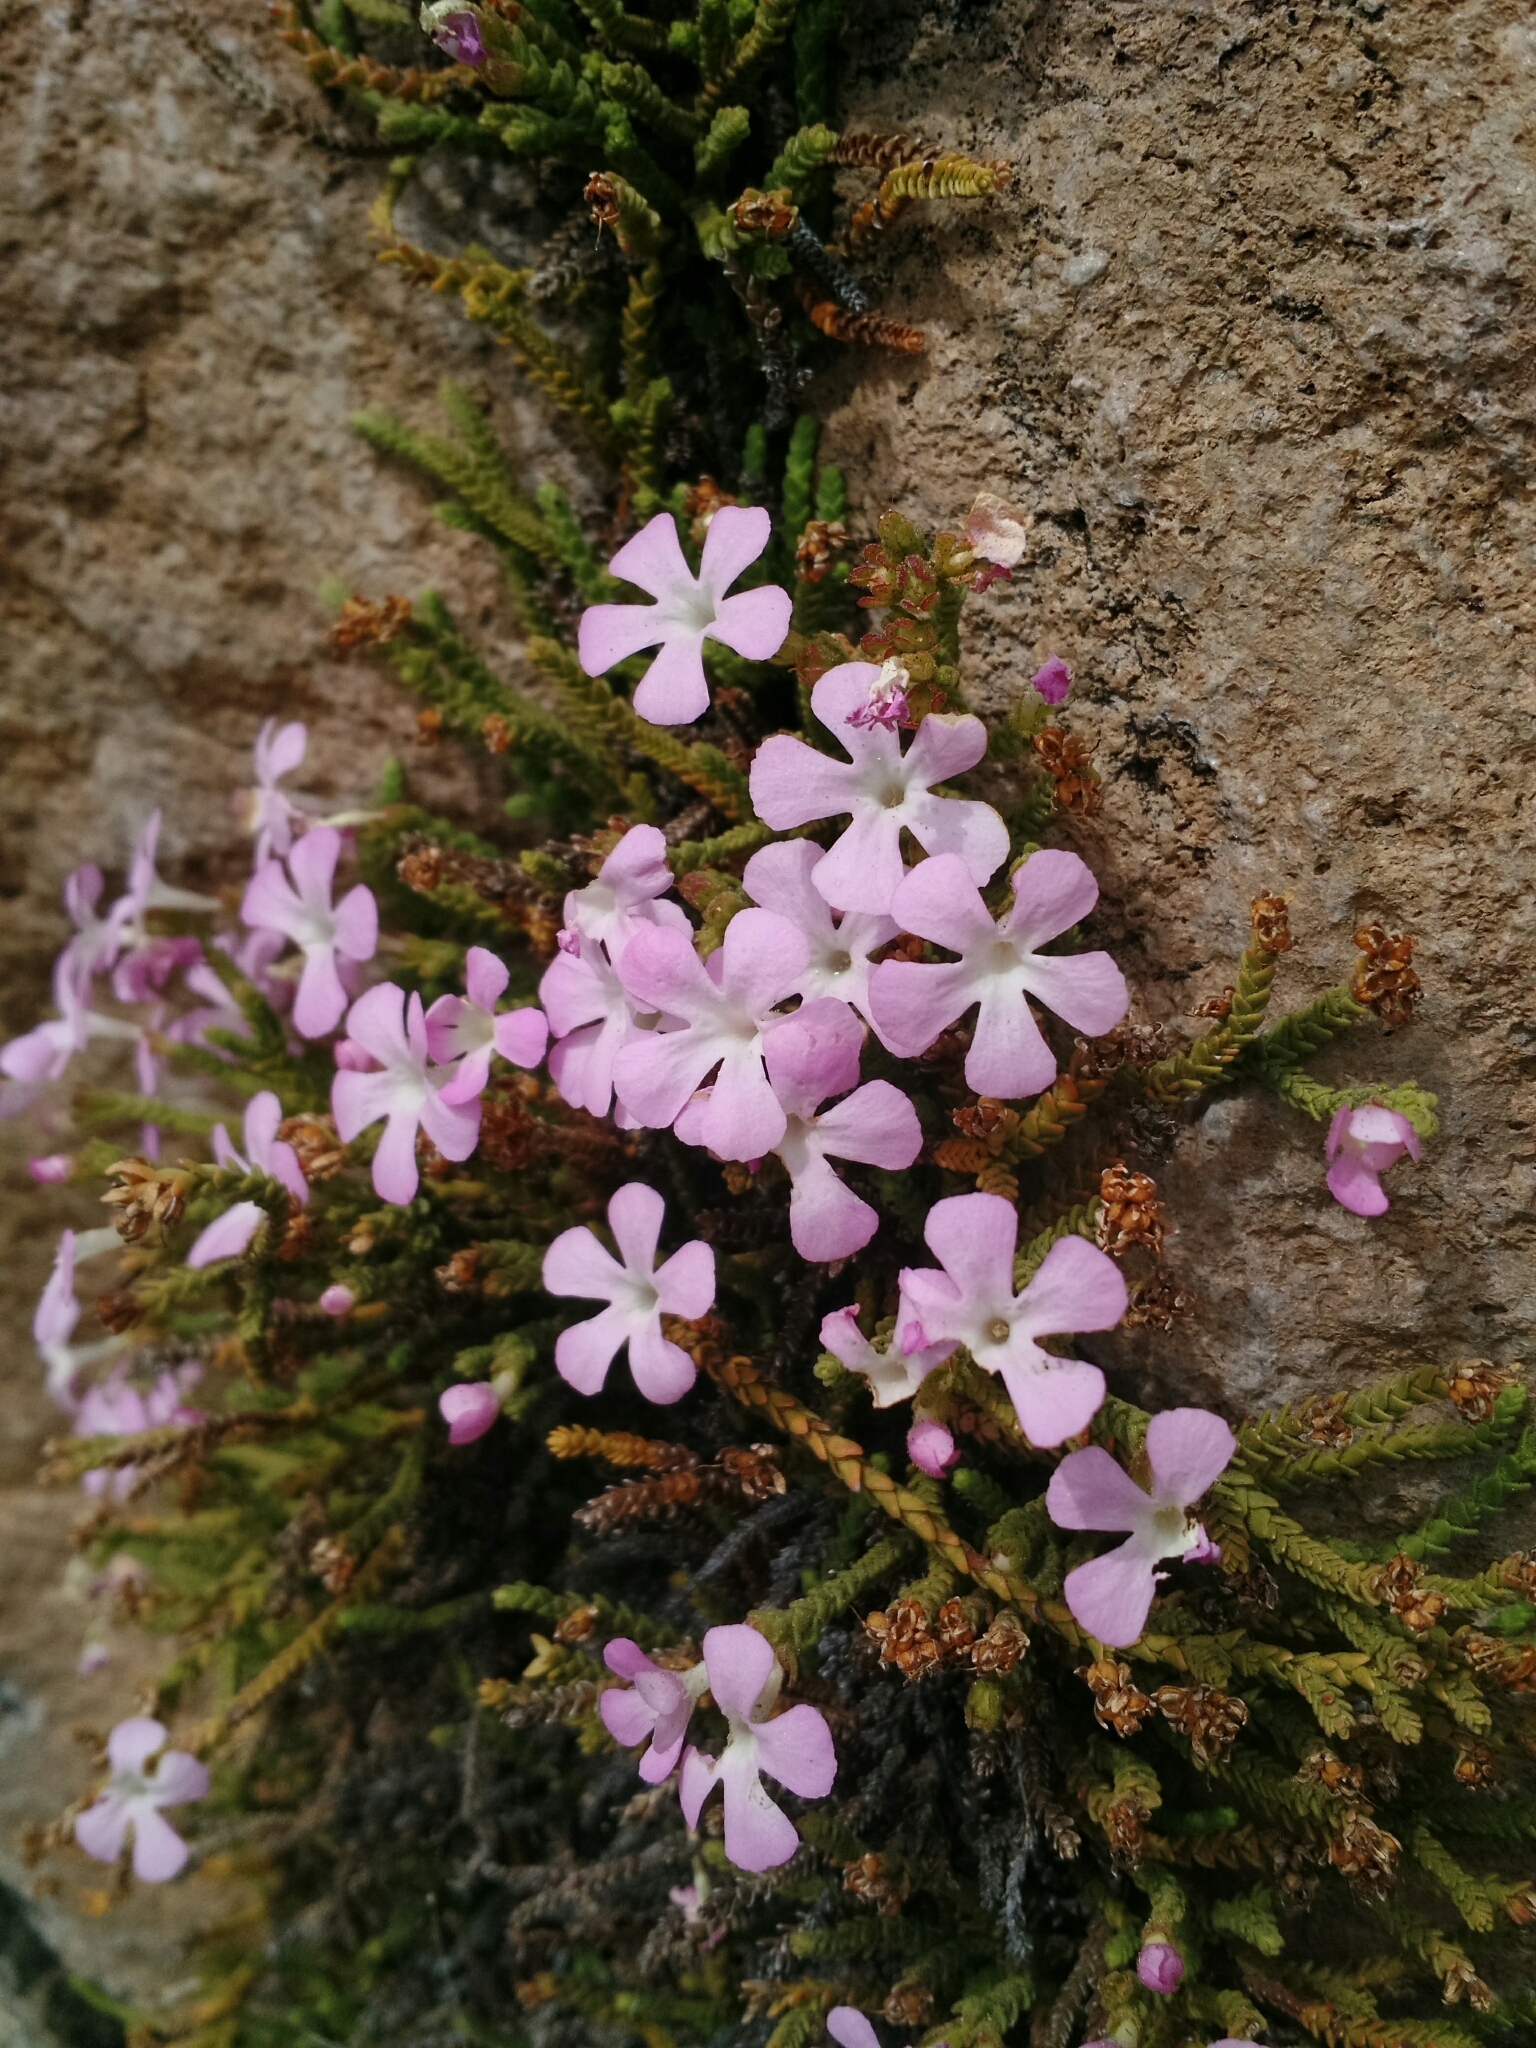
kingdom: Plantae
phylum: Tracheophyta
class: Magnoliopsida
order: Lamiales
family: Plantaginaceae
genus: Ourisia
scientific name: Ourisia microphylla
